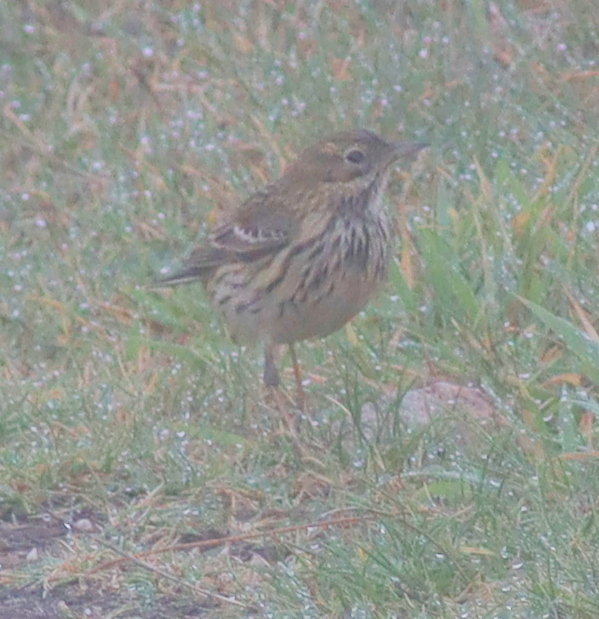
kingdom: Animalia
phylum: Chordata
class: Aves
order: Passeriformes
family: Motacillidae
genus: Anthus
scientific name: Anthus pratensis
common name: Meadow pipit
